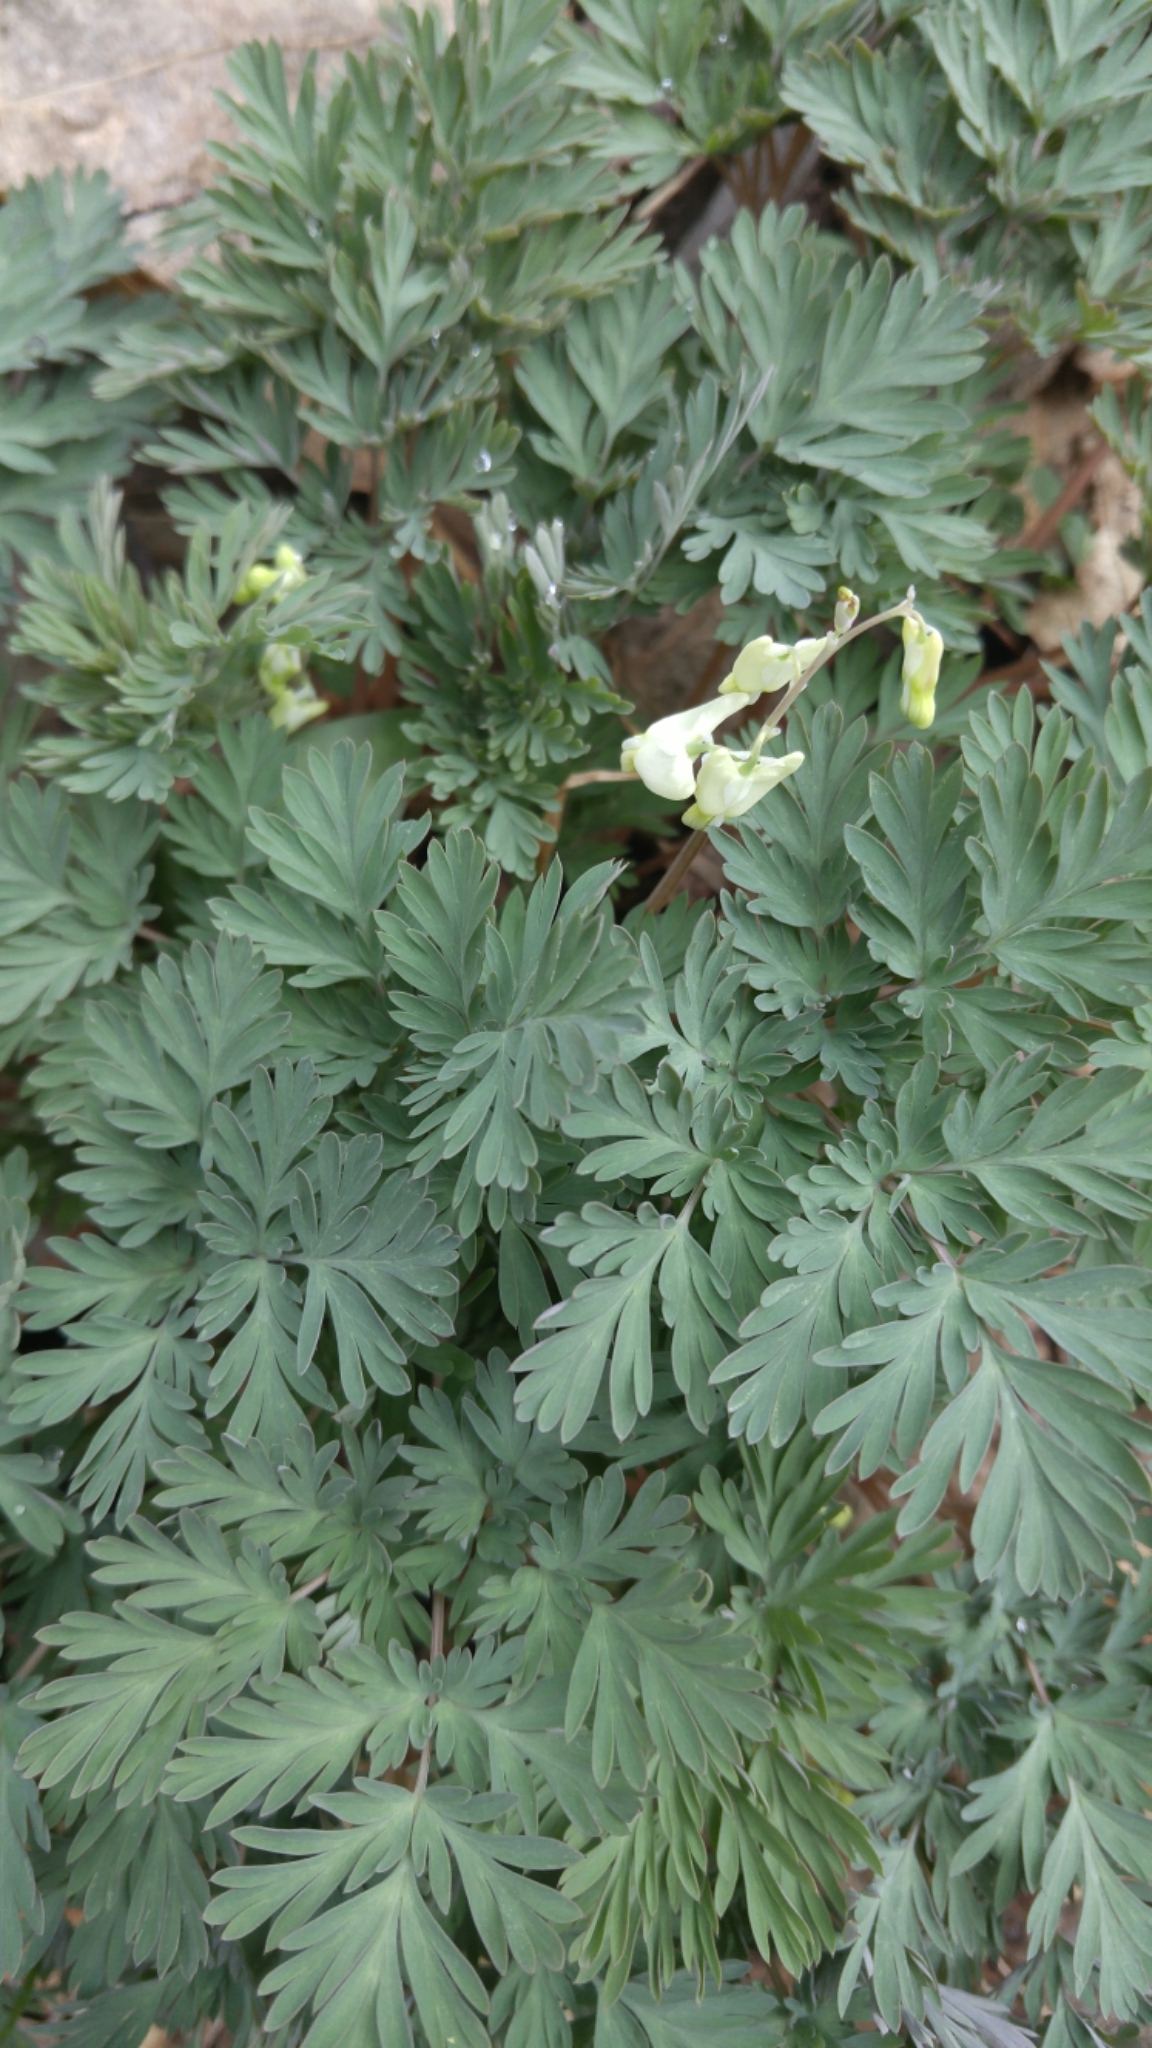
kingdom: Plantae
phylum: Tracheophyta
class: Magnoliopsida
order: Ranunculales
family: Papaveraceae
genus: Dicentra
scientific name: Dicentra cucullaria
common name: Dutchman's breeches
